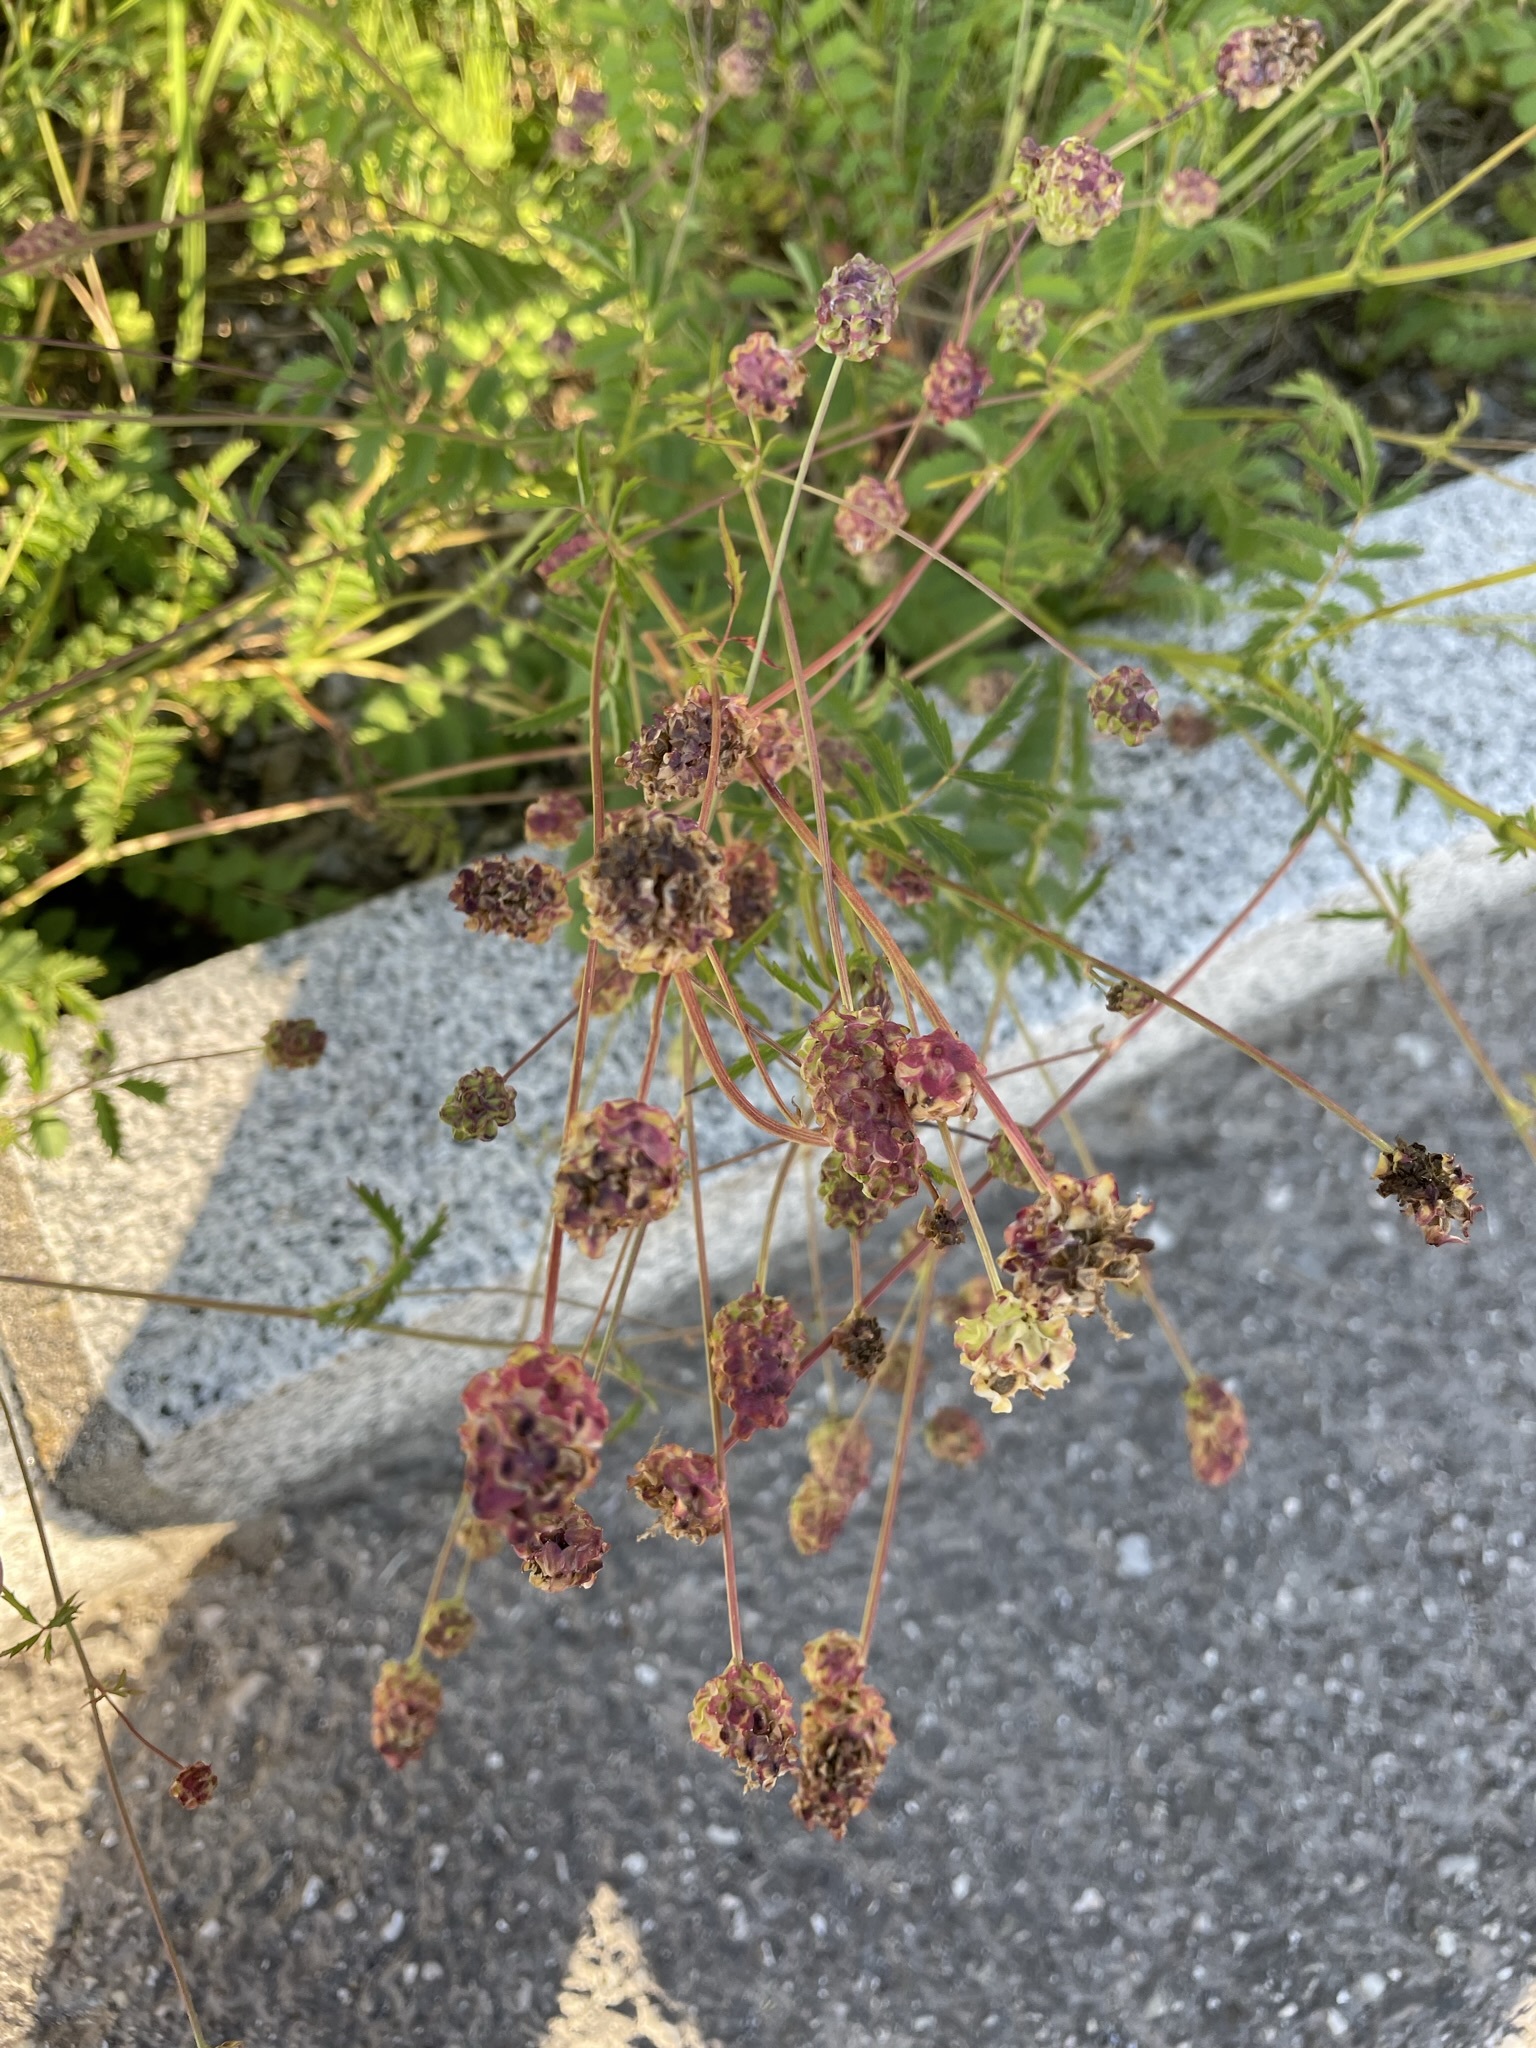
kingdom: Plantae
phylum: Tracheophyta
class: Magnoliopsida
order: Rosales
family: Rosaceae
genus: Poterium
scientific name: Poterium sanguisorba
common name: Salad burnet
